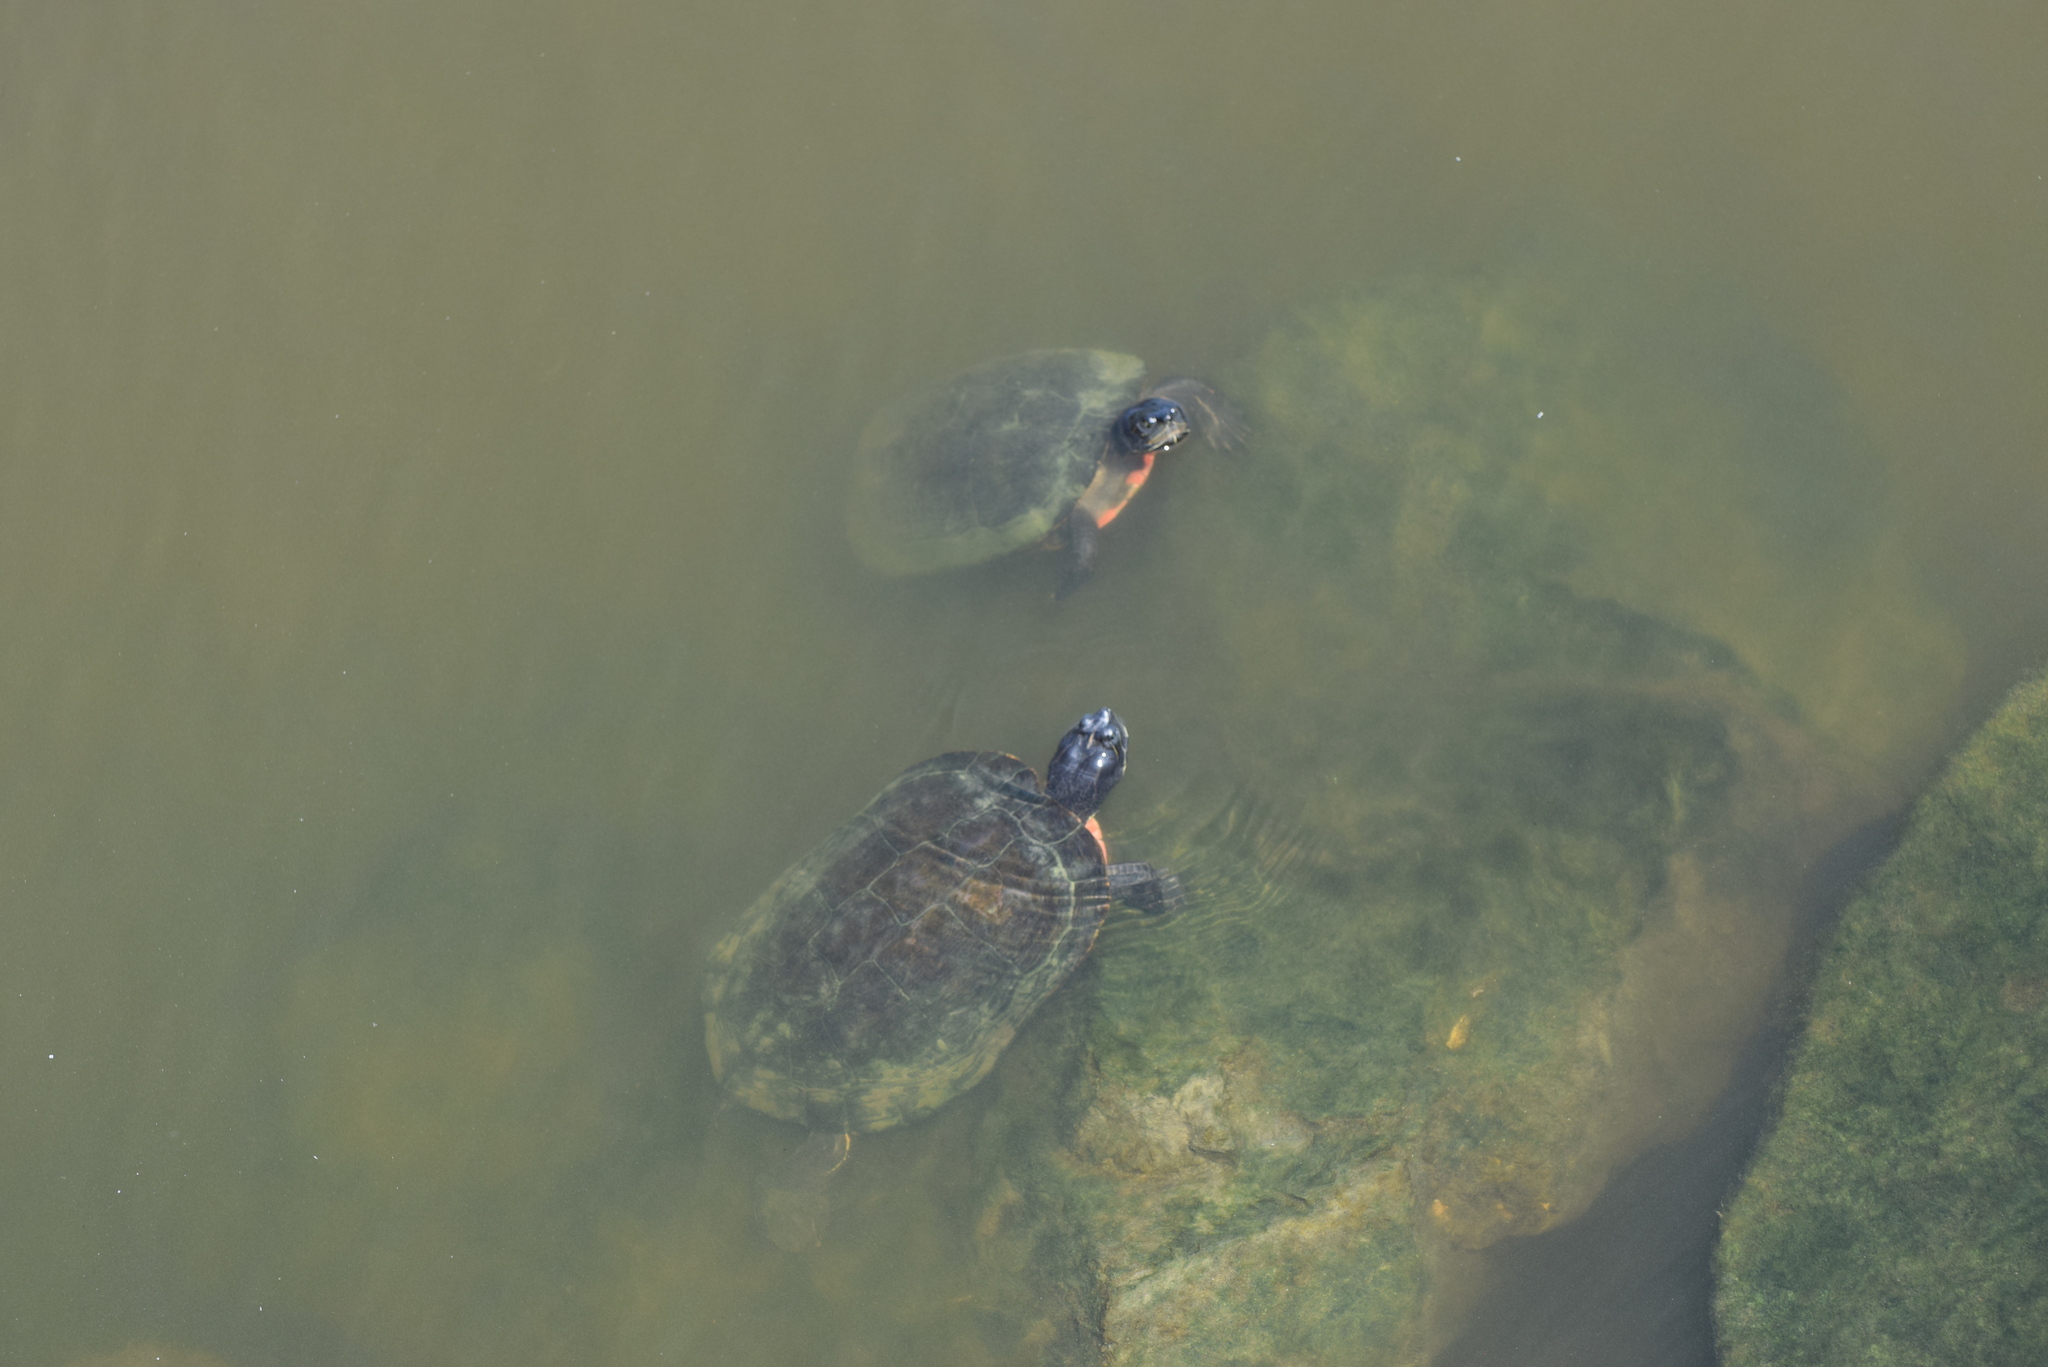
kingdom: Animalia
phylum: Chordata
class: Testudines
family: Emydidae
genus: Pseudemys
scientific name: Pseudemys rubriventris
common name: American red-bellied turtle
